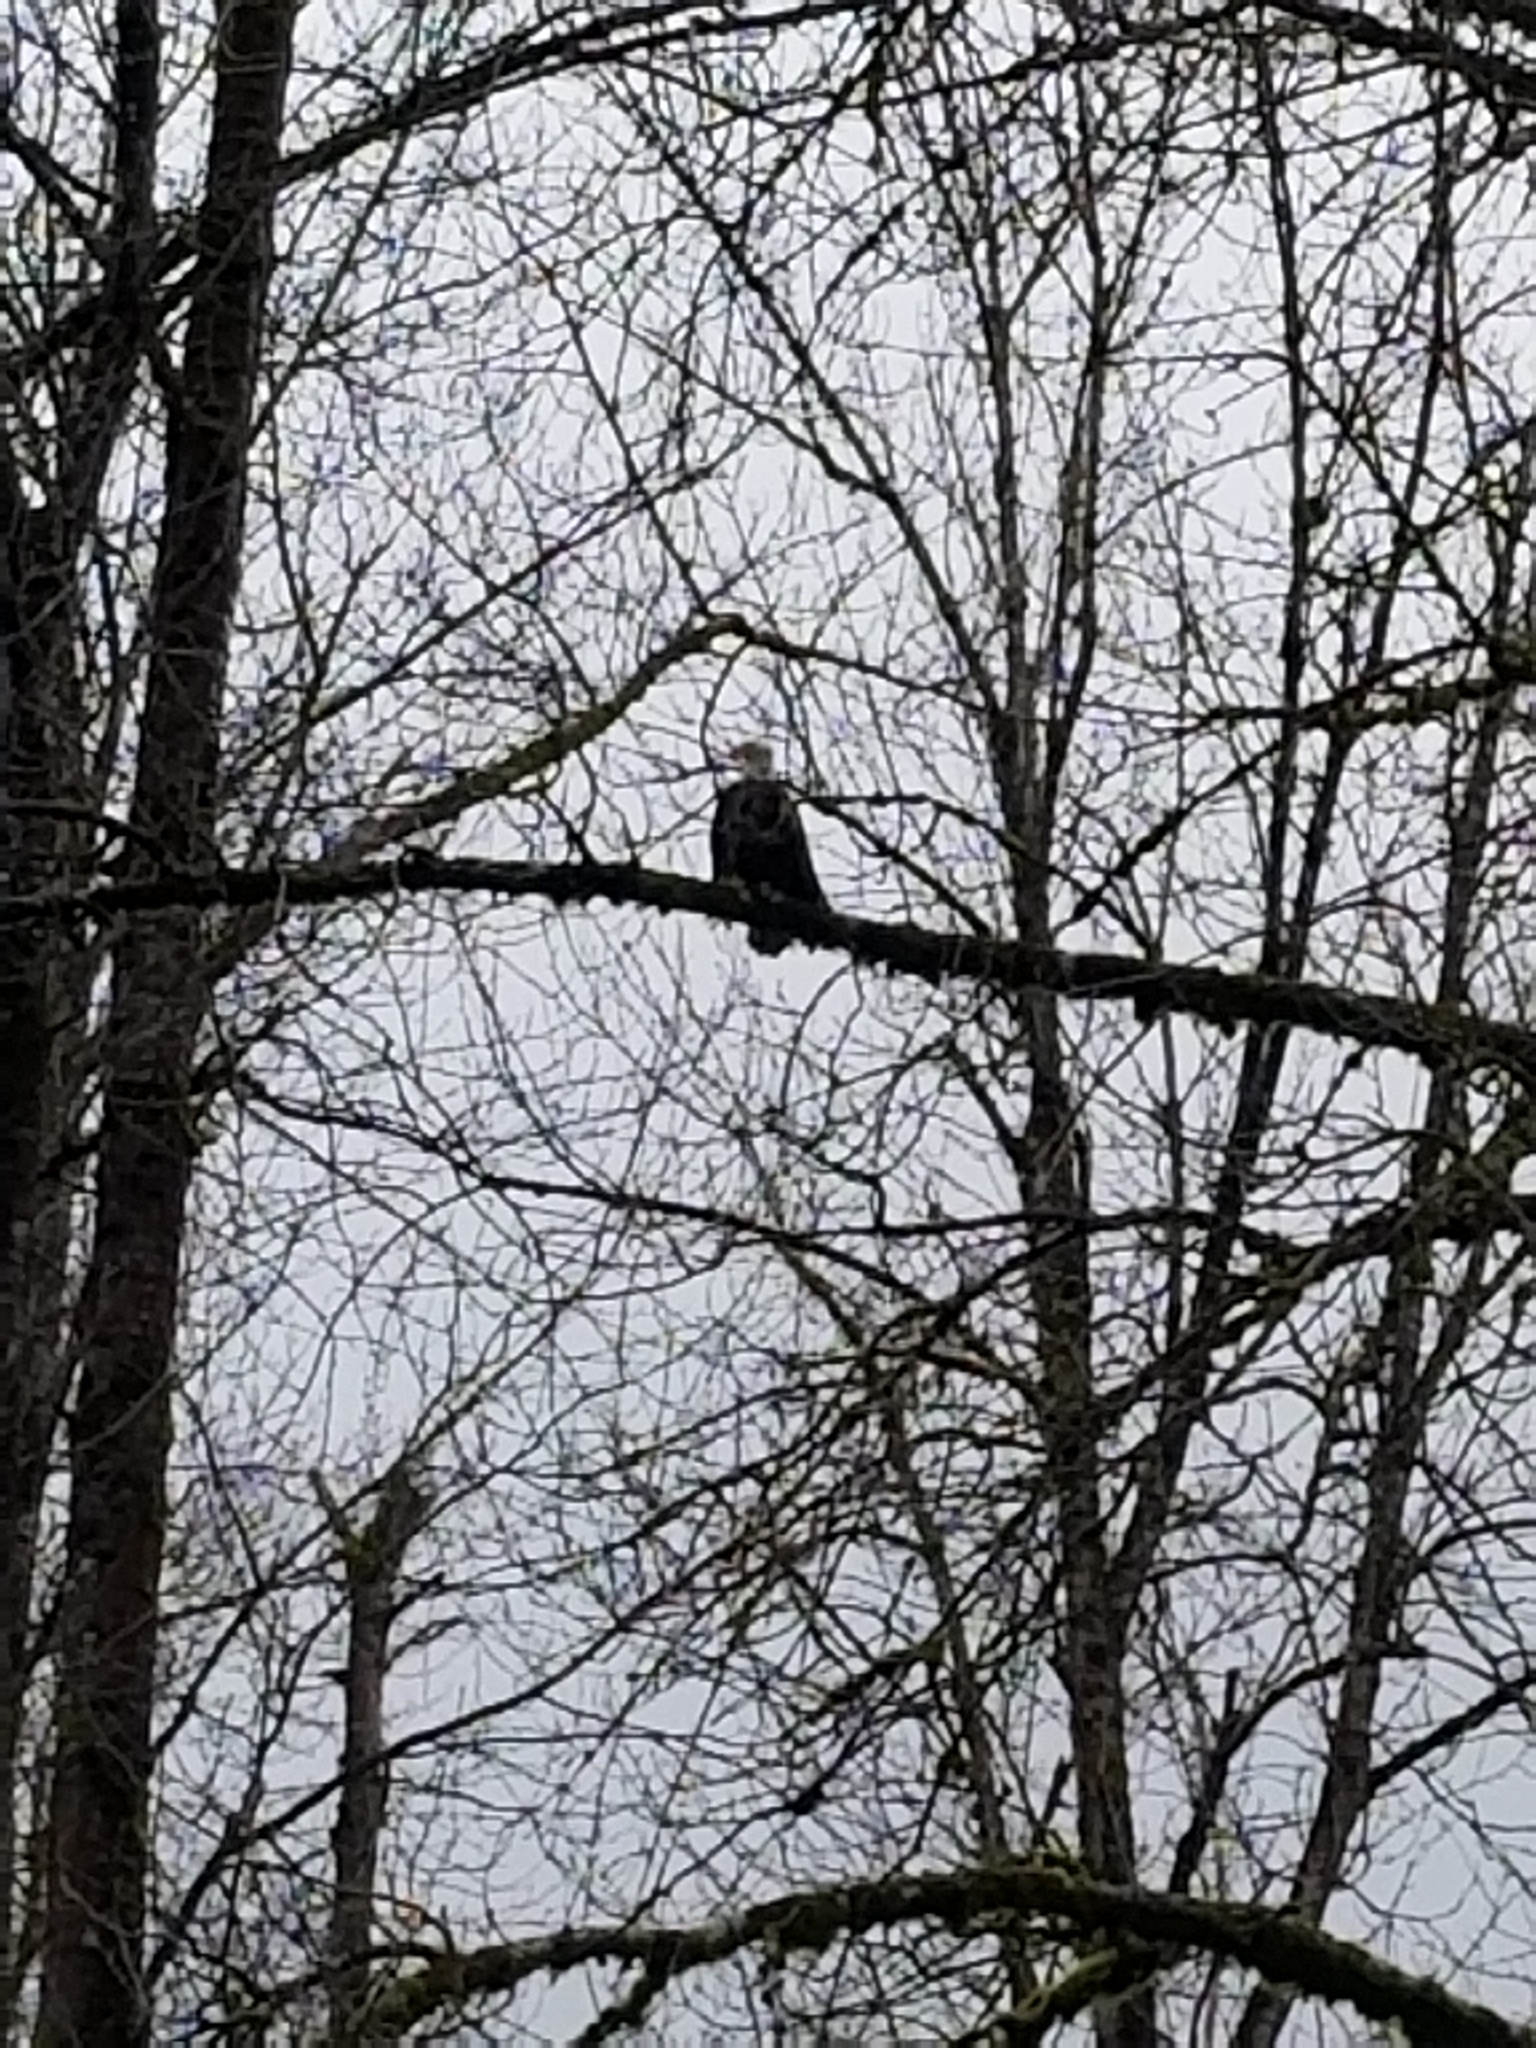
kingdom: Animalia
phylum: Chordata
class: Aves
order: Accipitriformes
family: Accipitridae
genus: Haliaeetus
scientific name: Haliaeetus leucocephalus
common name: Bald eagle
